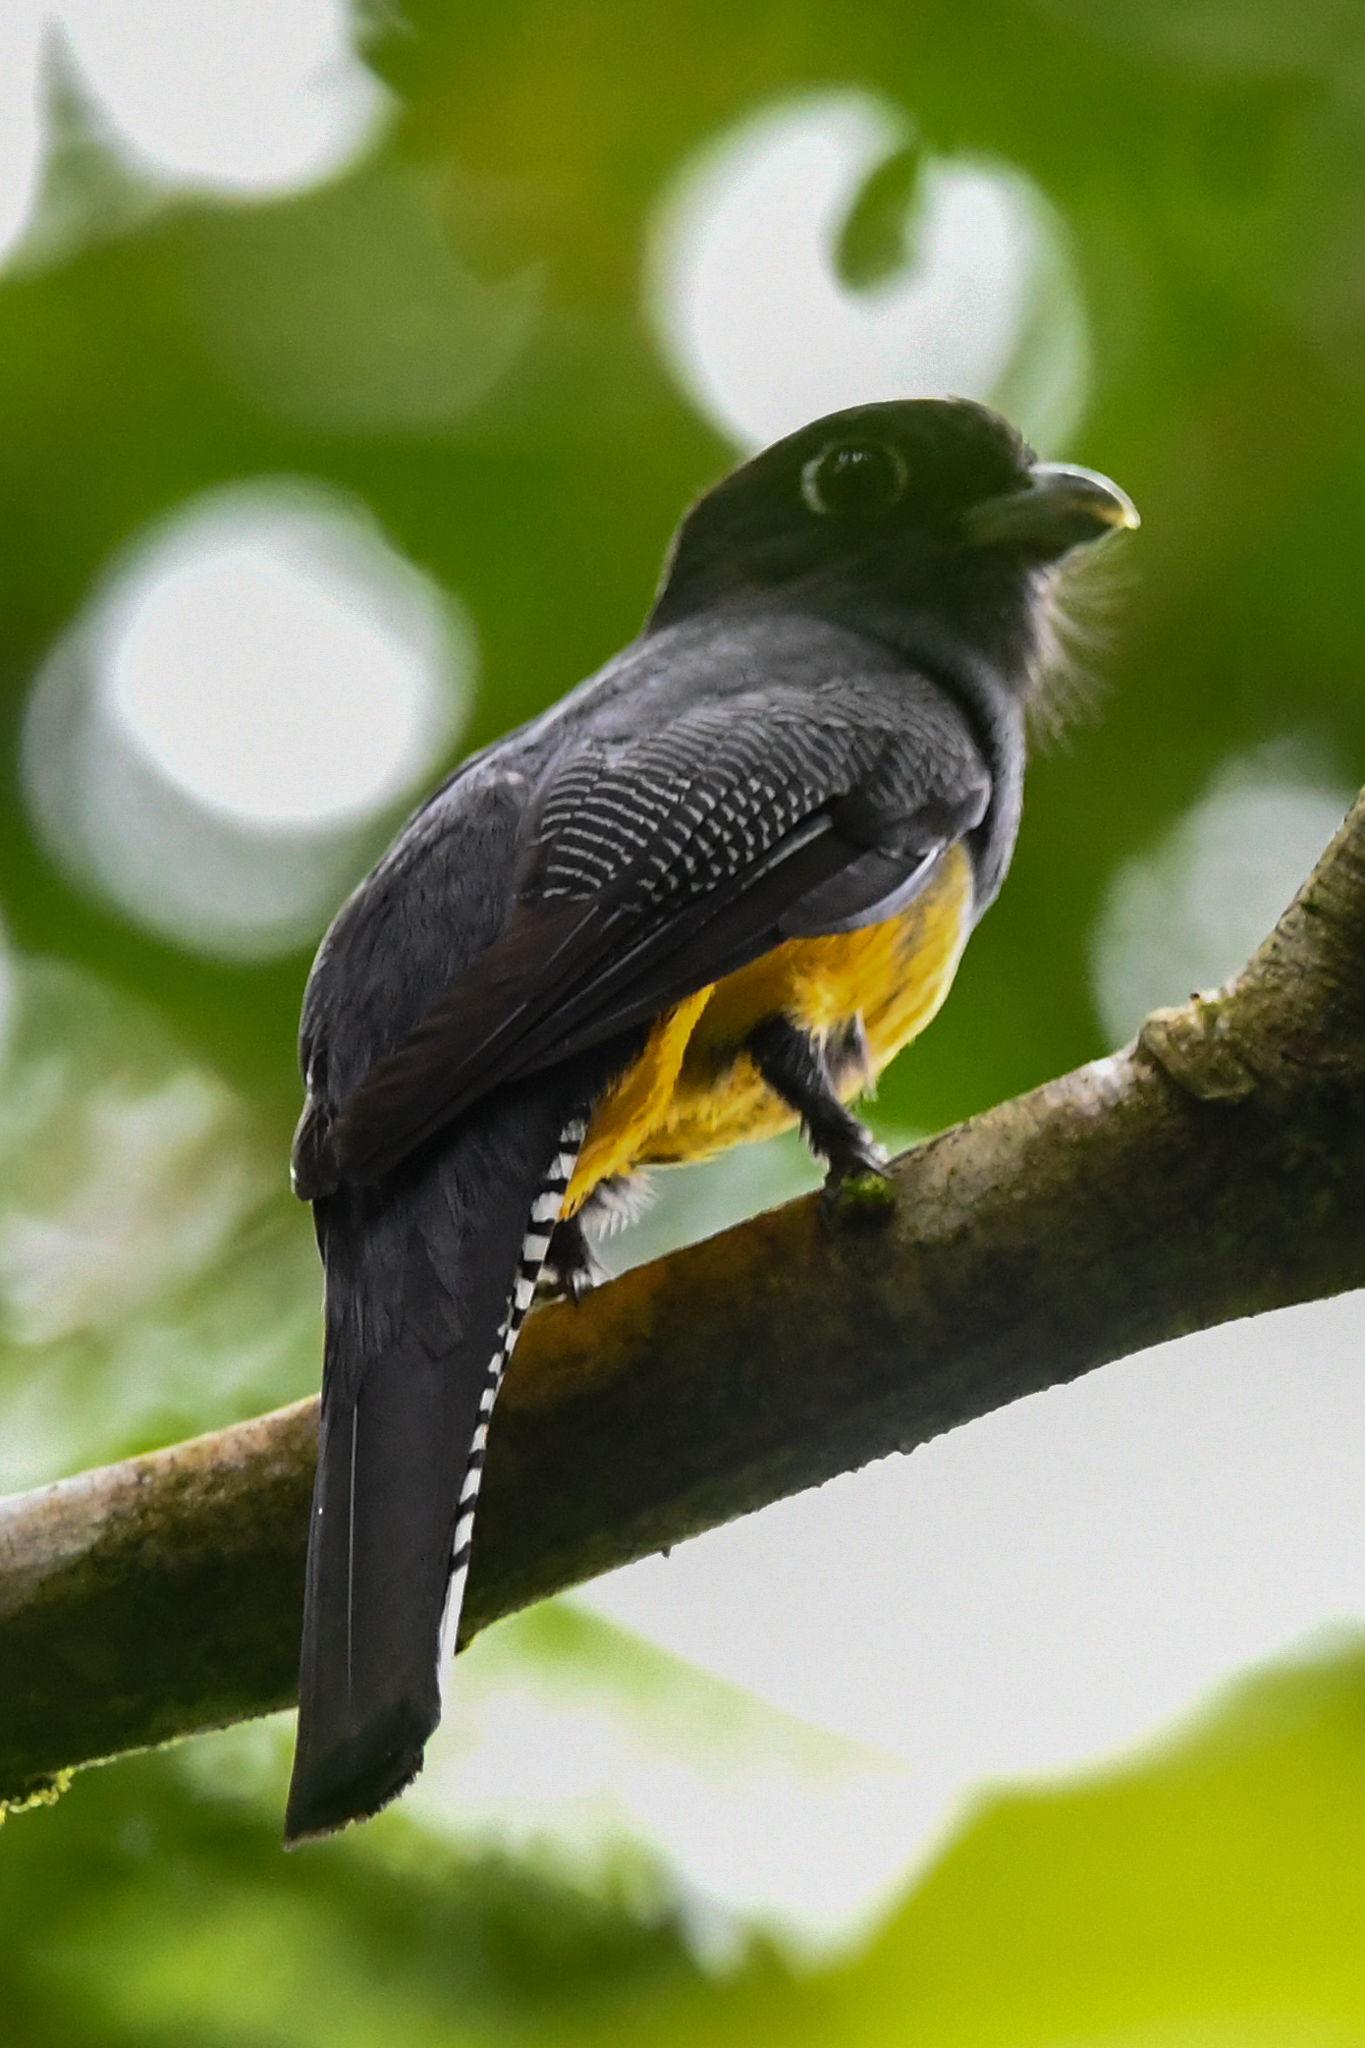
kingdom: Animalia
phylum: Chordata
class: Aves
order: Trogoniformes
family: Trogonidae
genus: Trogon
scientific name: Trogon caligatus
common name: Gartered trogon
